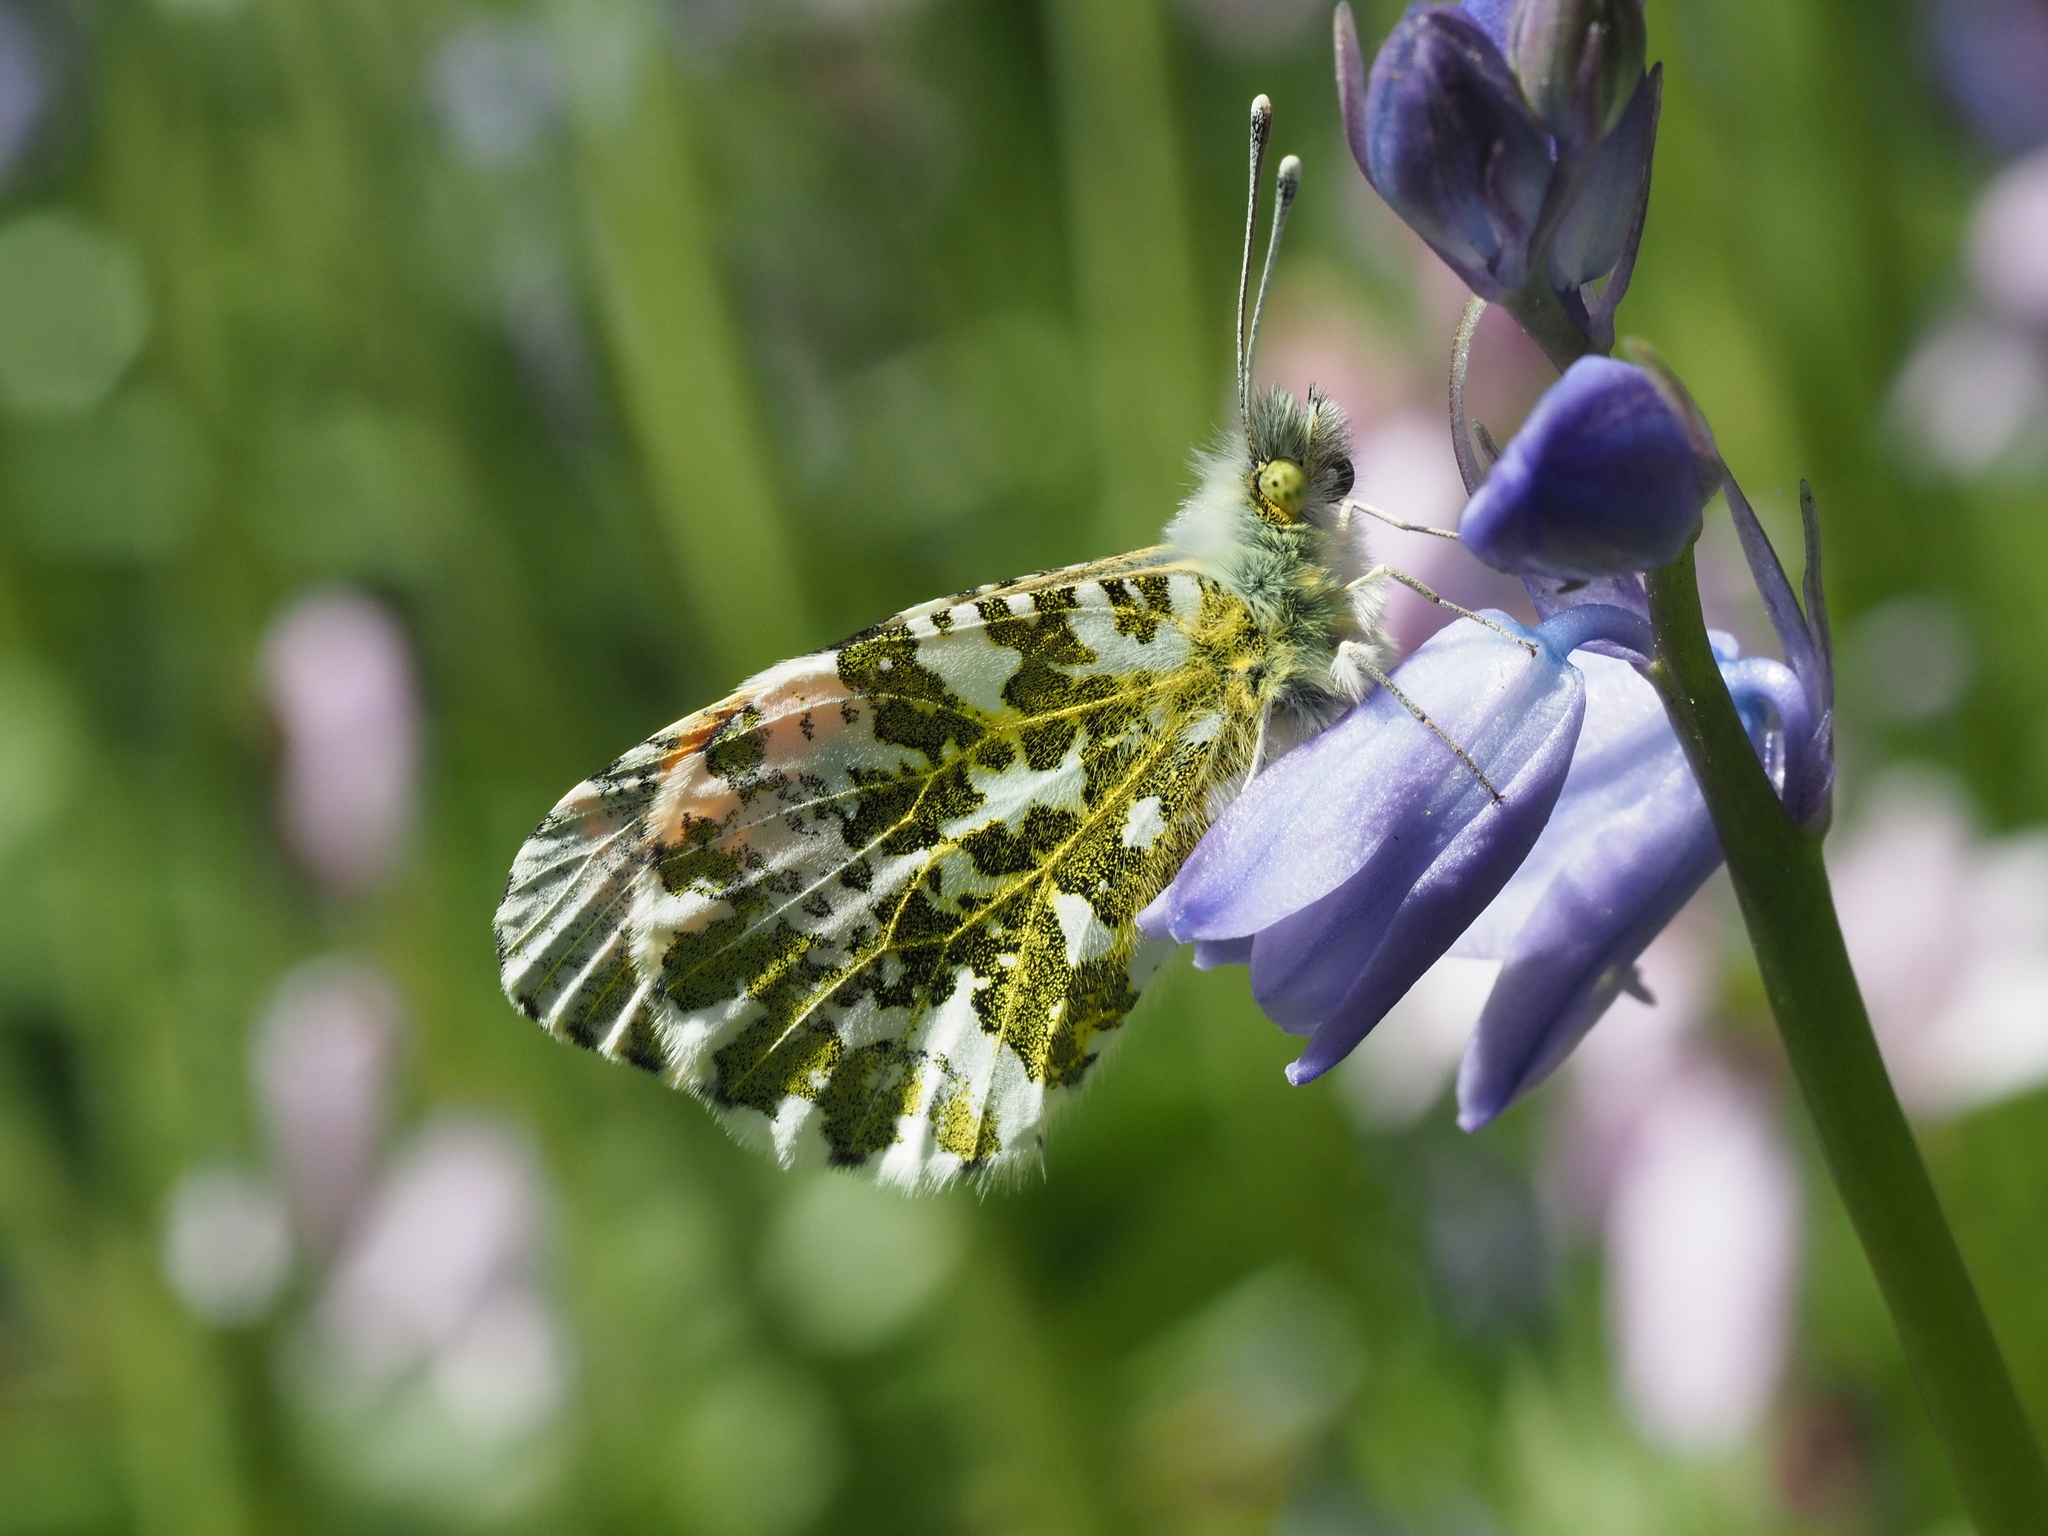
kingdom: Animalia
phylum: Arthropoda
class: Insecta
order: Lepidoptera
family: Pieridae
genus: Anthocharis
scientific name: Anthocharis cardamines
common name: Orange-tip
